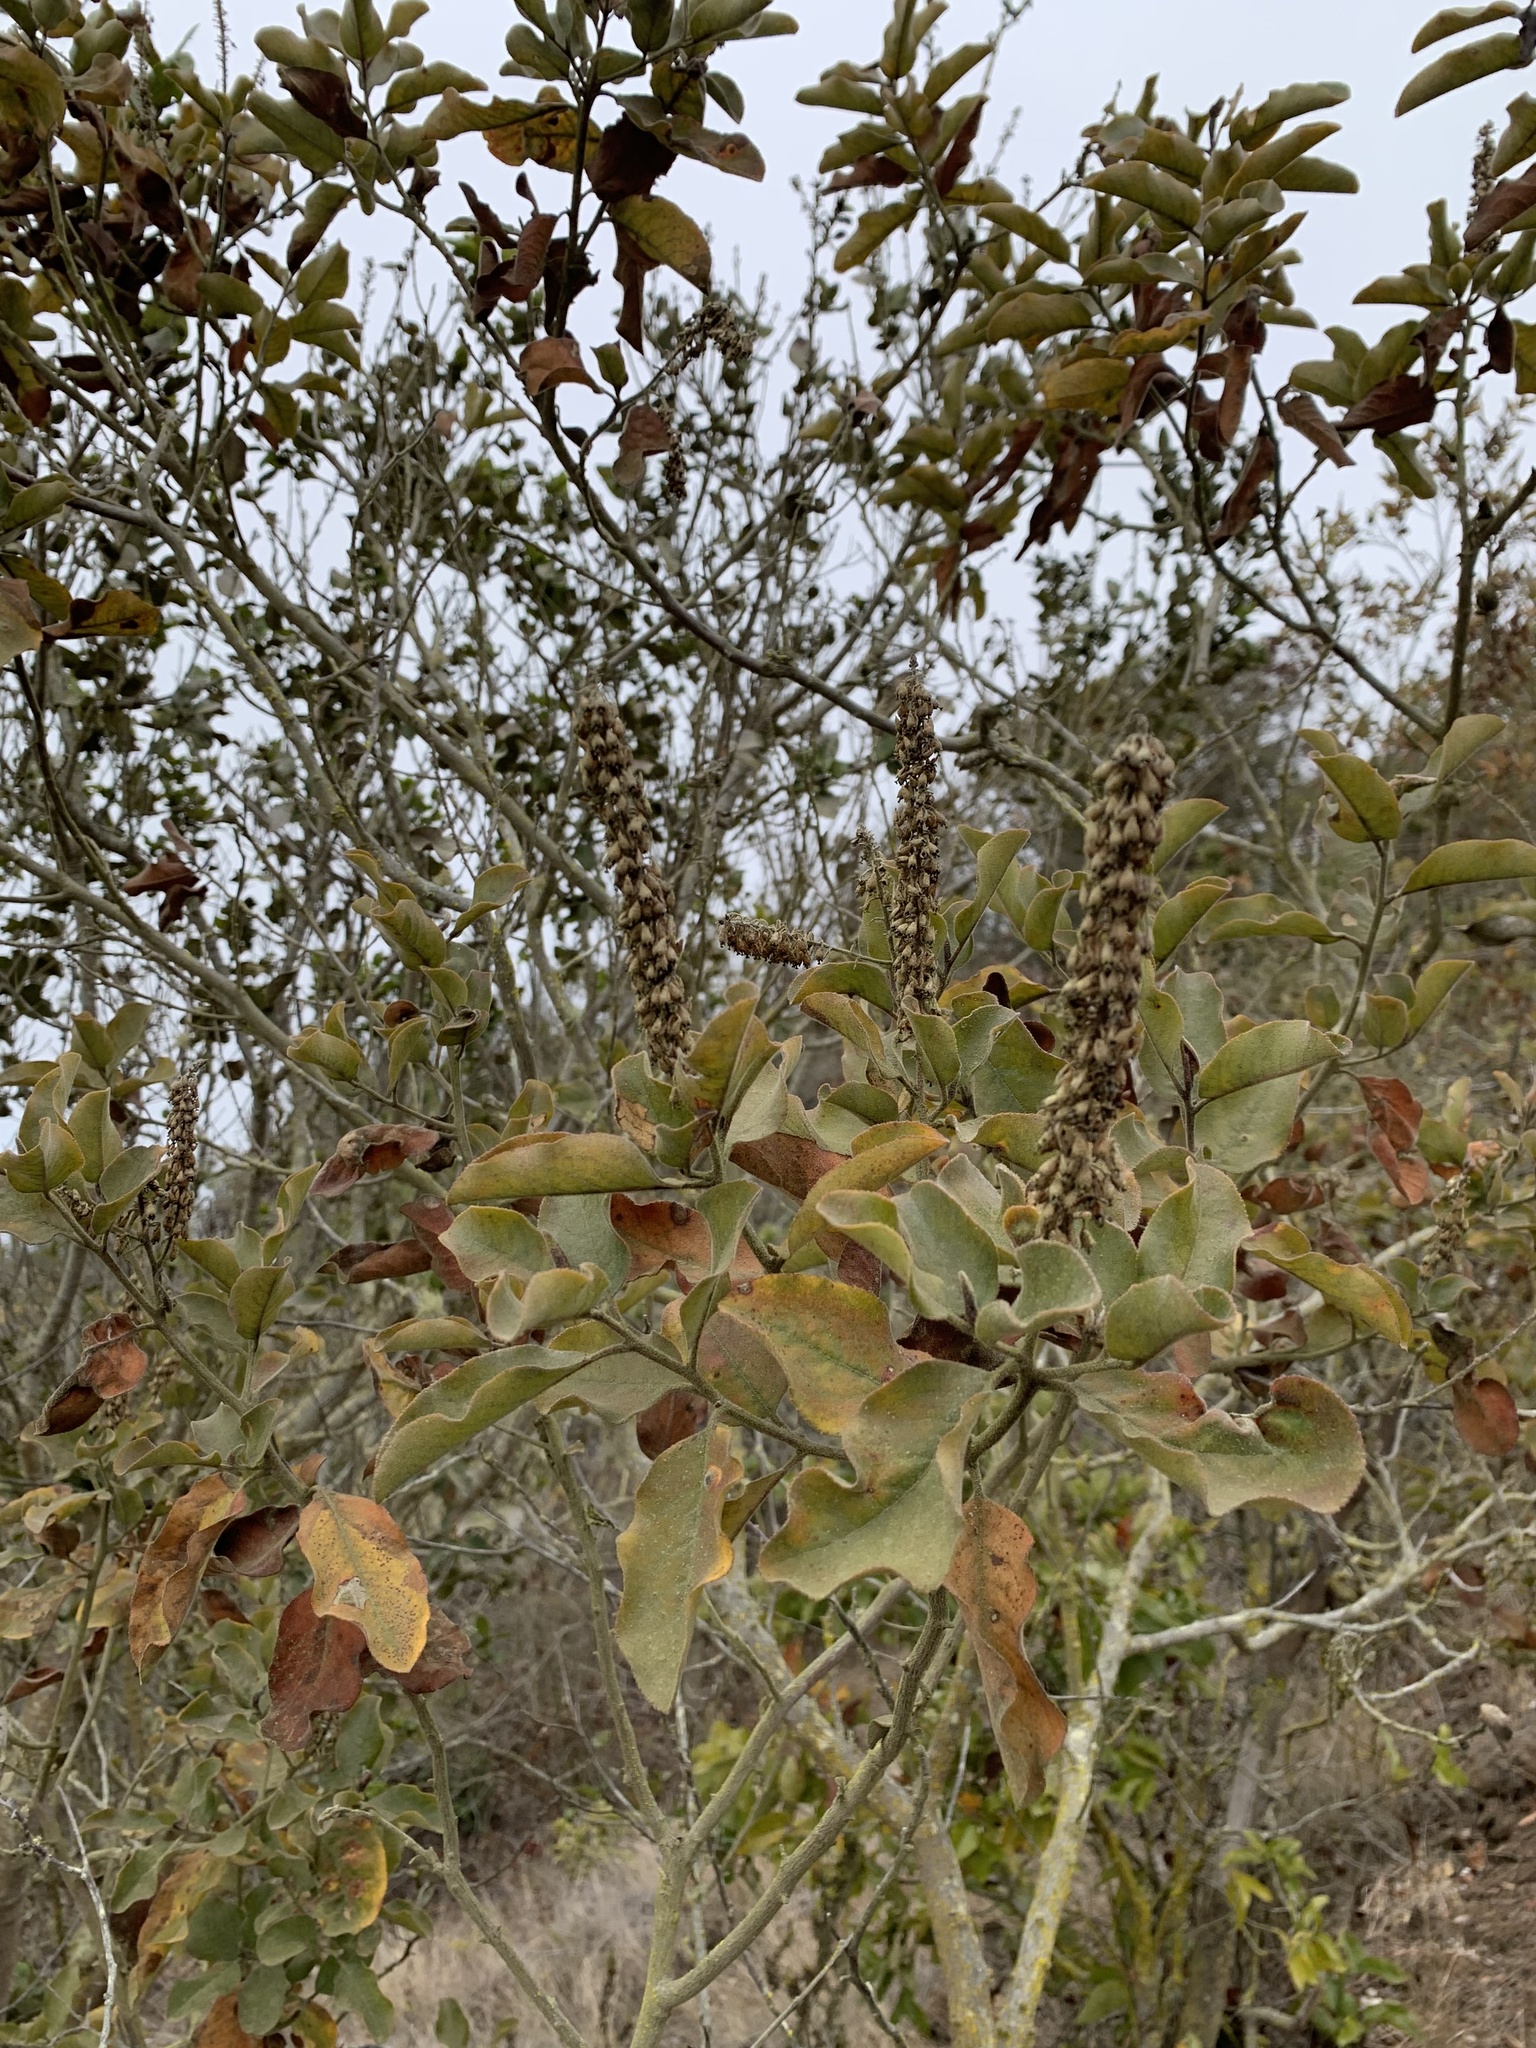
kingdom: Plantae
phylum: Tracheophyta
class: Magnoliopsida
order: Escalloniales
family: Escalloniaceae
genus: Escallonia
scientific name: Escallonia pulverulenta
